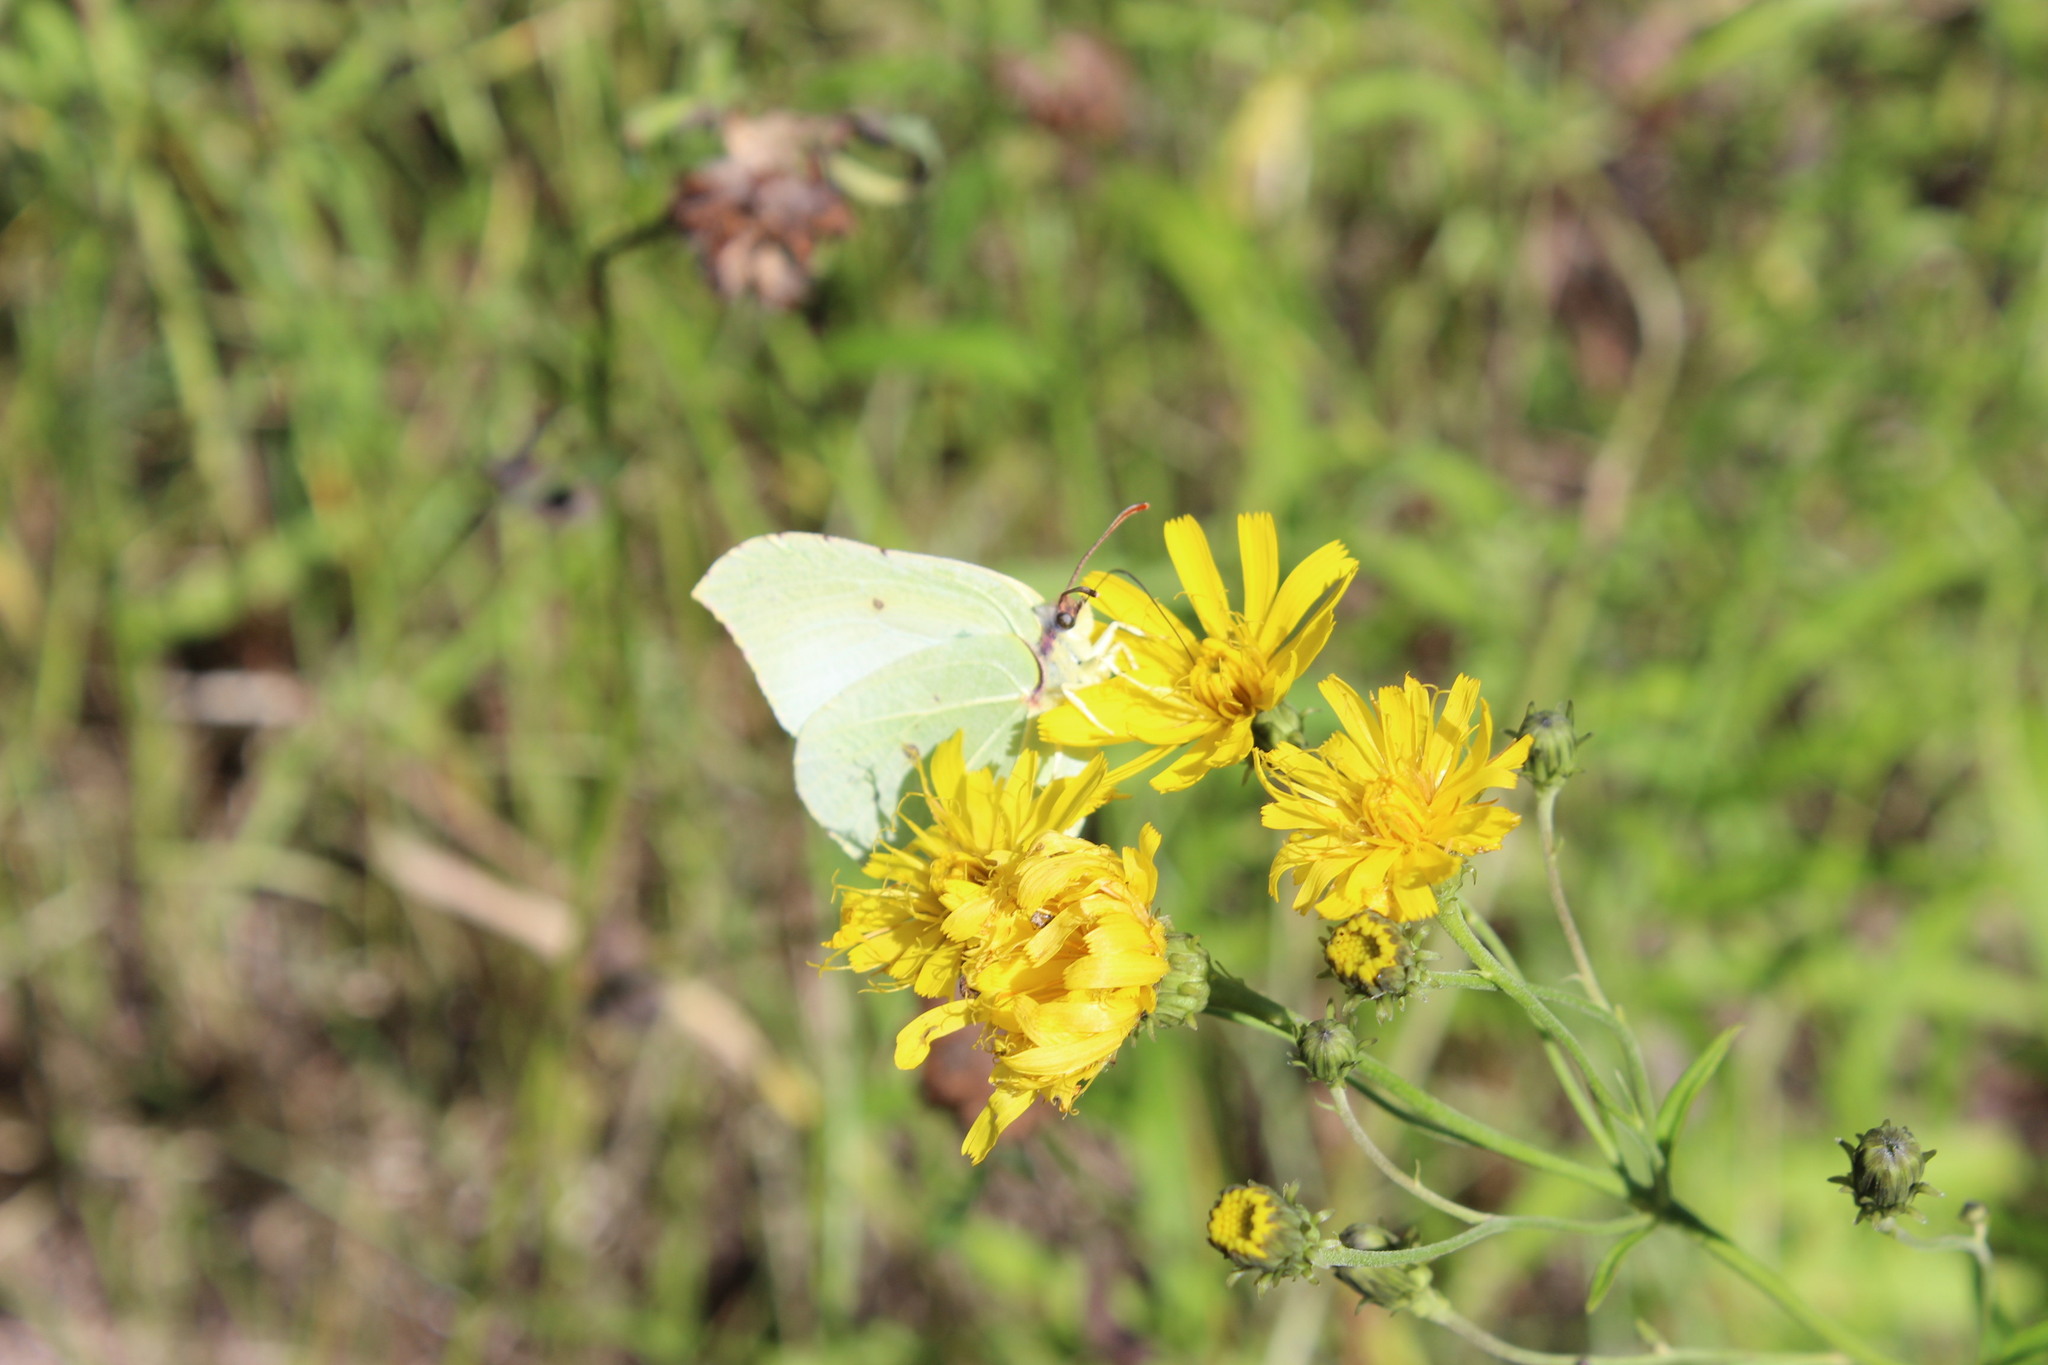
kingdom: Animalia
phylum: Arthropoda
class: Insecta
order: Lepidoptera
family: Pieridae
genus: Gonepteryx
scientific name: Gonepteryx rhamni
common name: Brimstone
